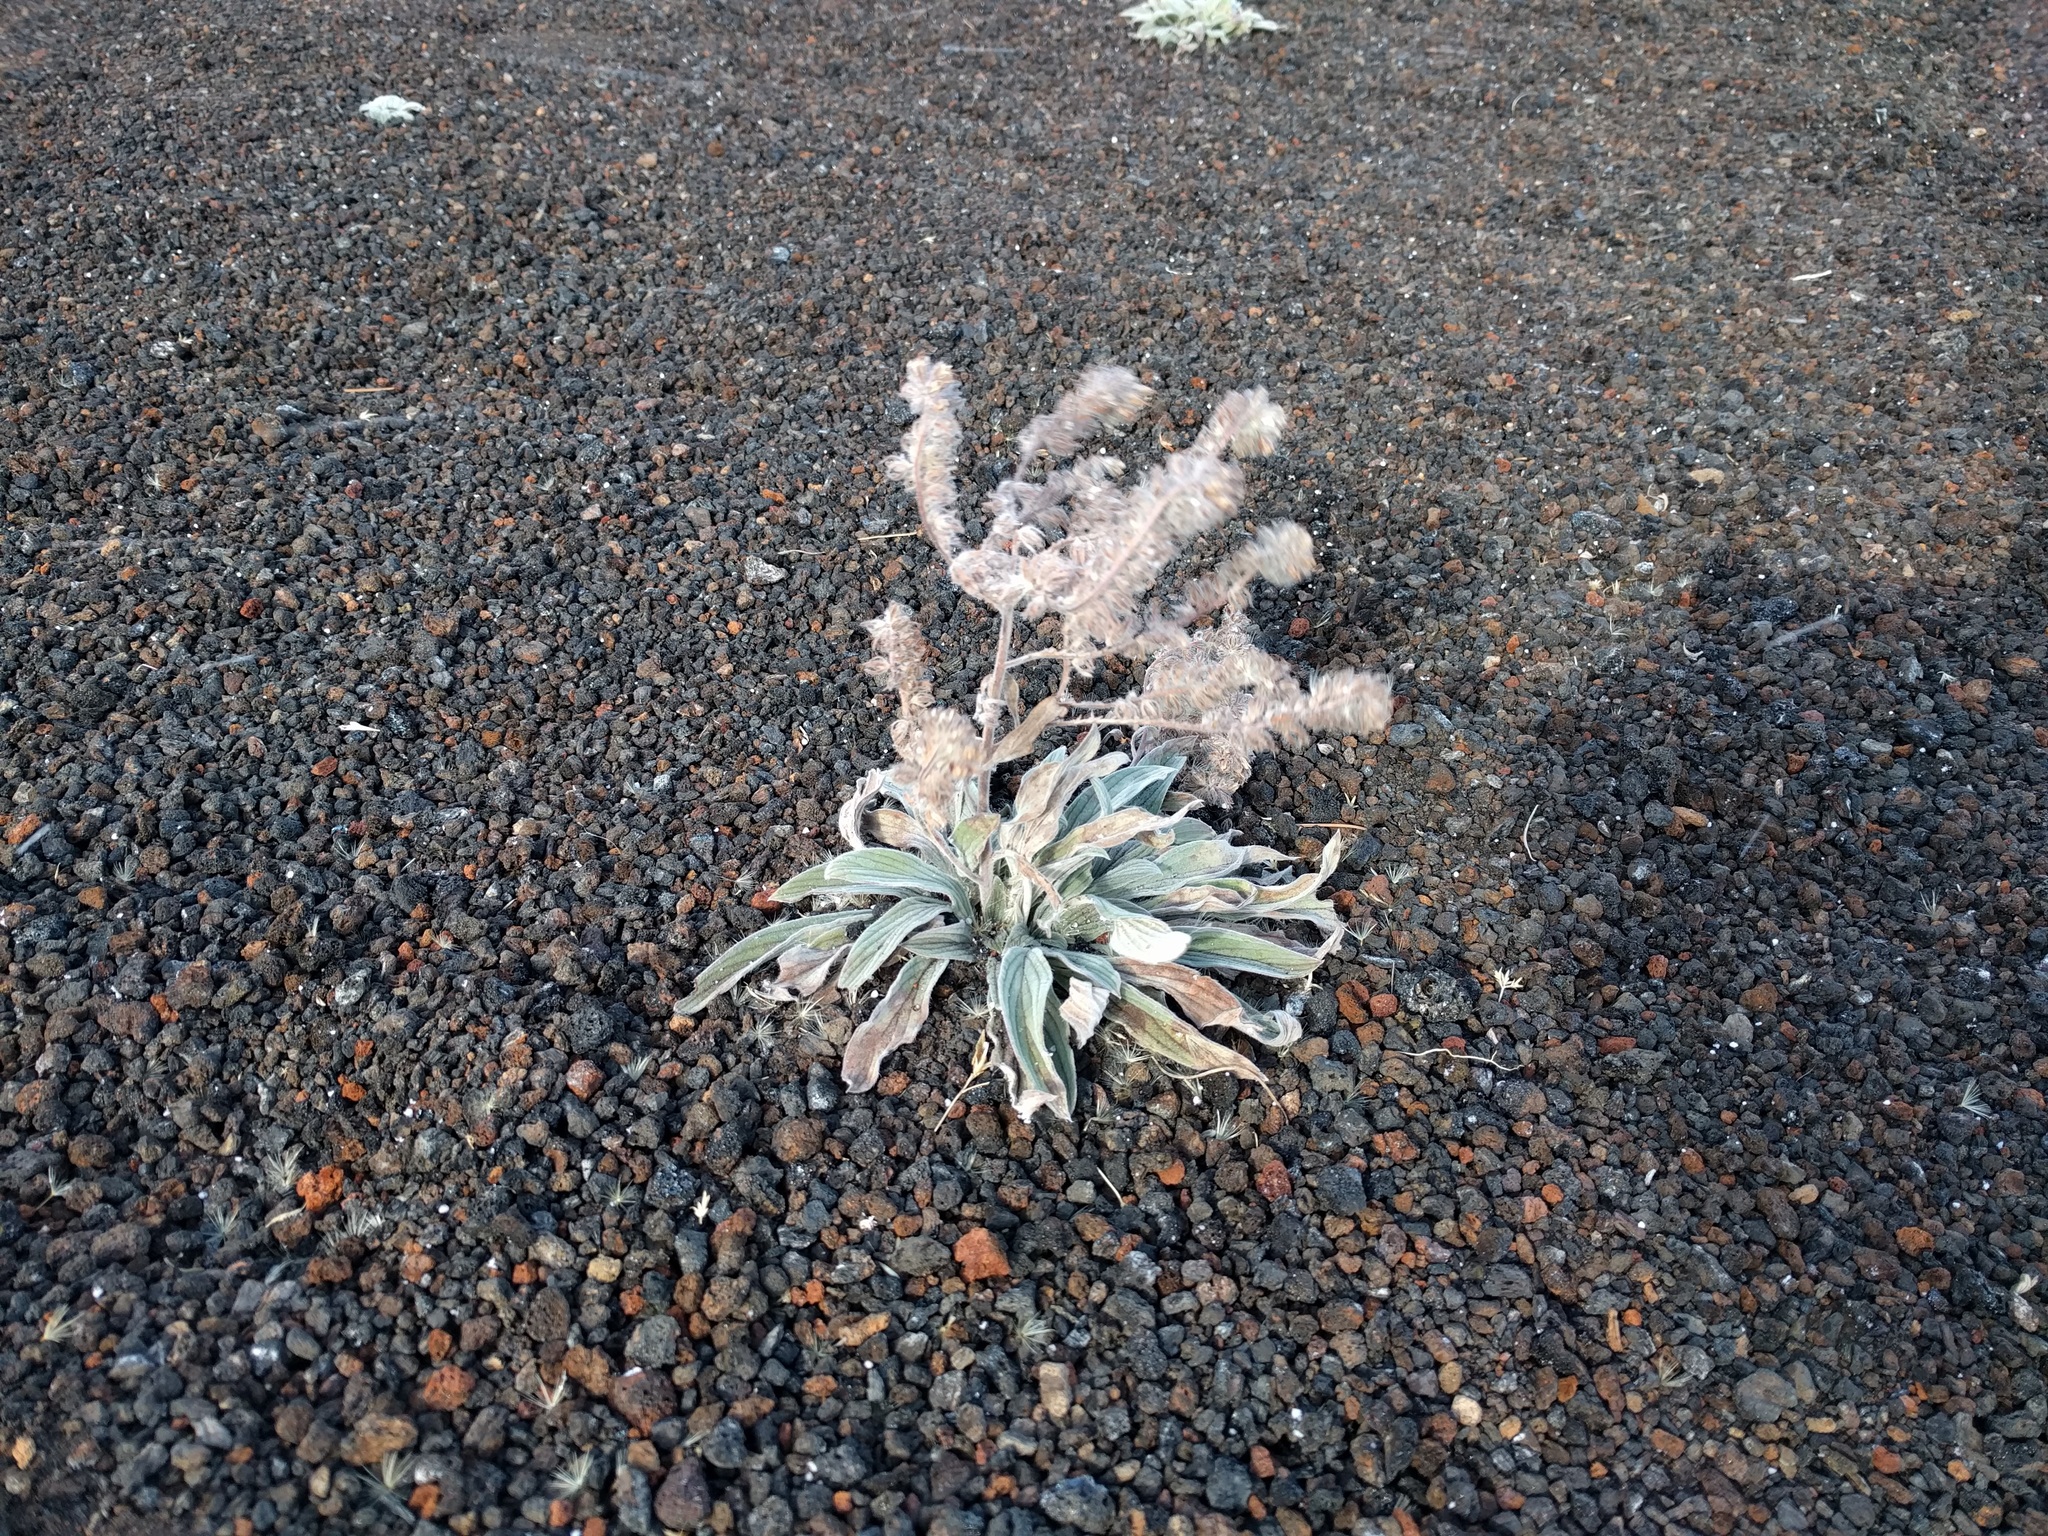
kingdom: Plantae
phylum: Tracheophyta
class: Magnoliopsida
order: Boraginales
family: Hydrophyllaceae
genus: Phacelia
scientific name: Phacelia hastata
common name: Silver-leaved phacelia
